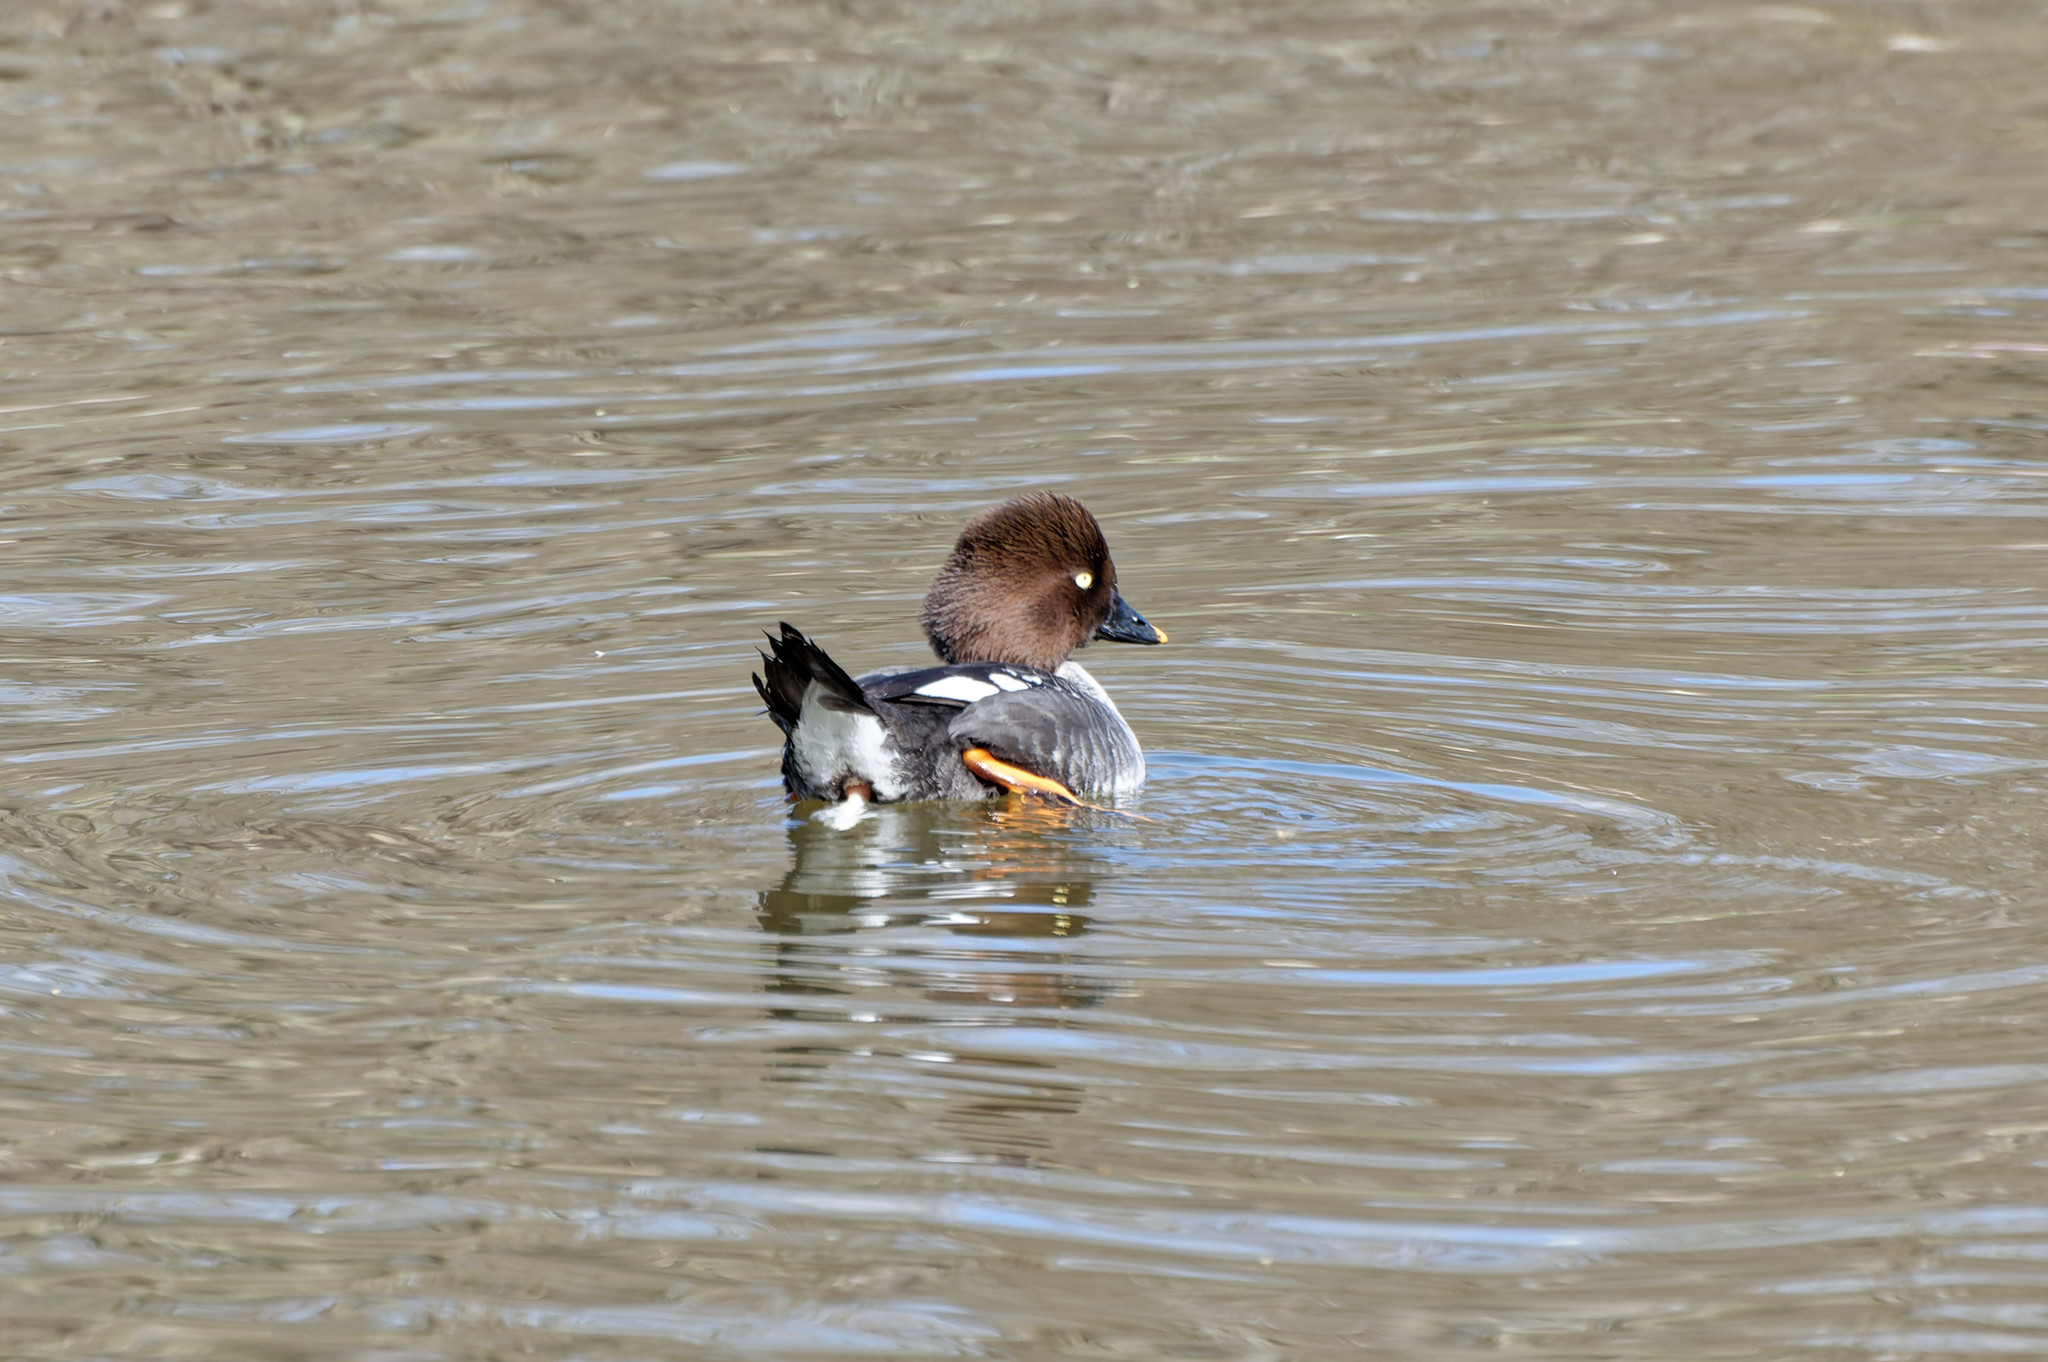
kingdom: Animalia
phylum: Chordata
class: Aves
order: Anseriformes
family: Anatidae
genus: Bucephala
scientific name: Bucephala clangula
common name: Common goldeneye
